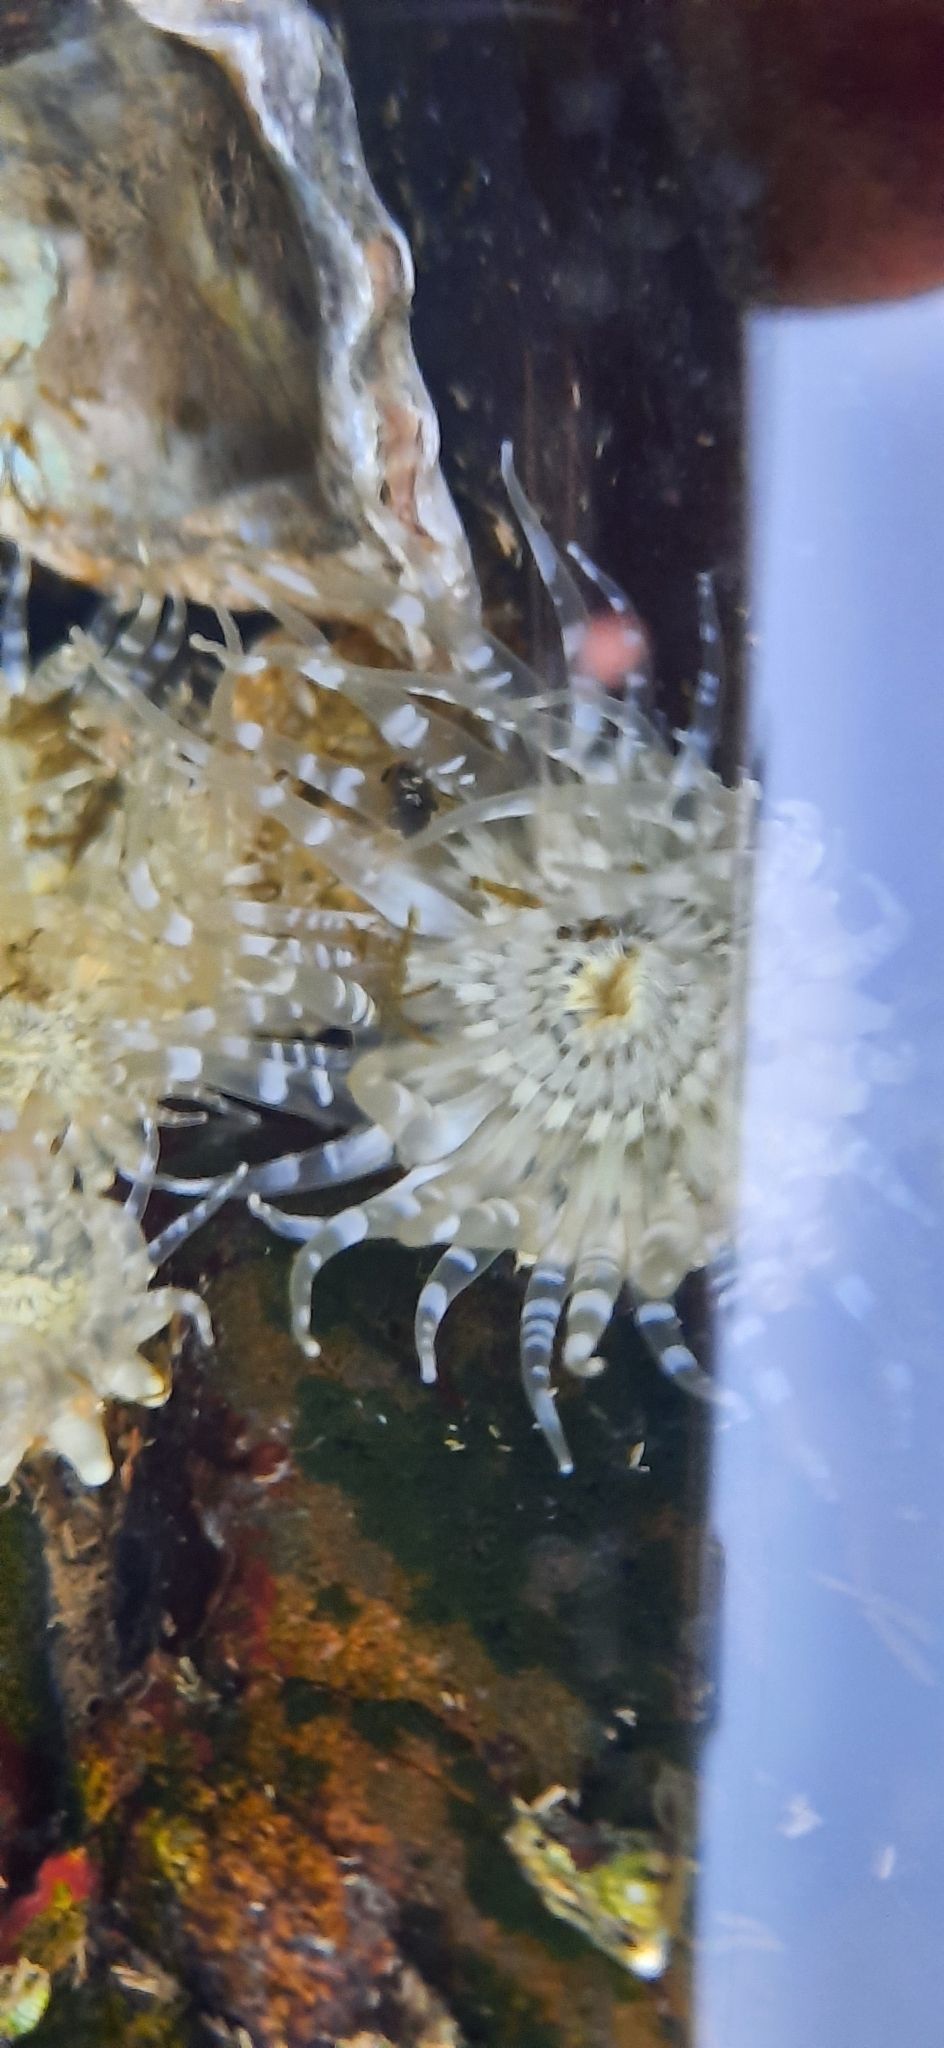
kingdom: Animalia
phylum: Cnidaria
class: Anthozoa
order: Actiniaria
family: Actiniidae
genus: Anthopleura
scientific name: Anthopleura dixoniana
